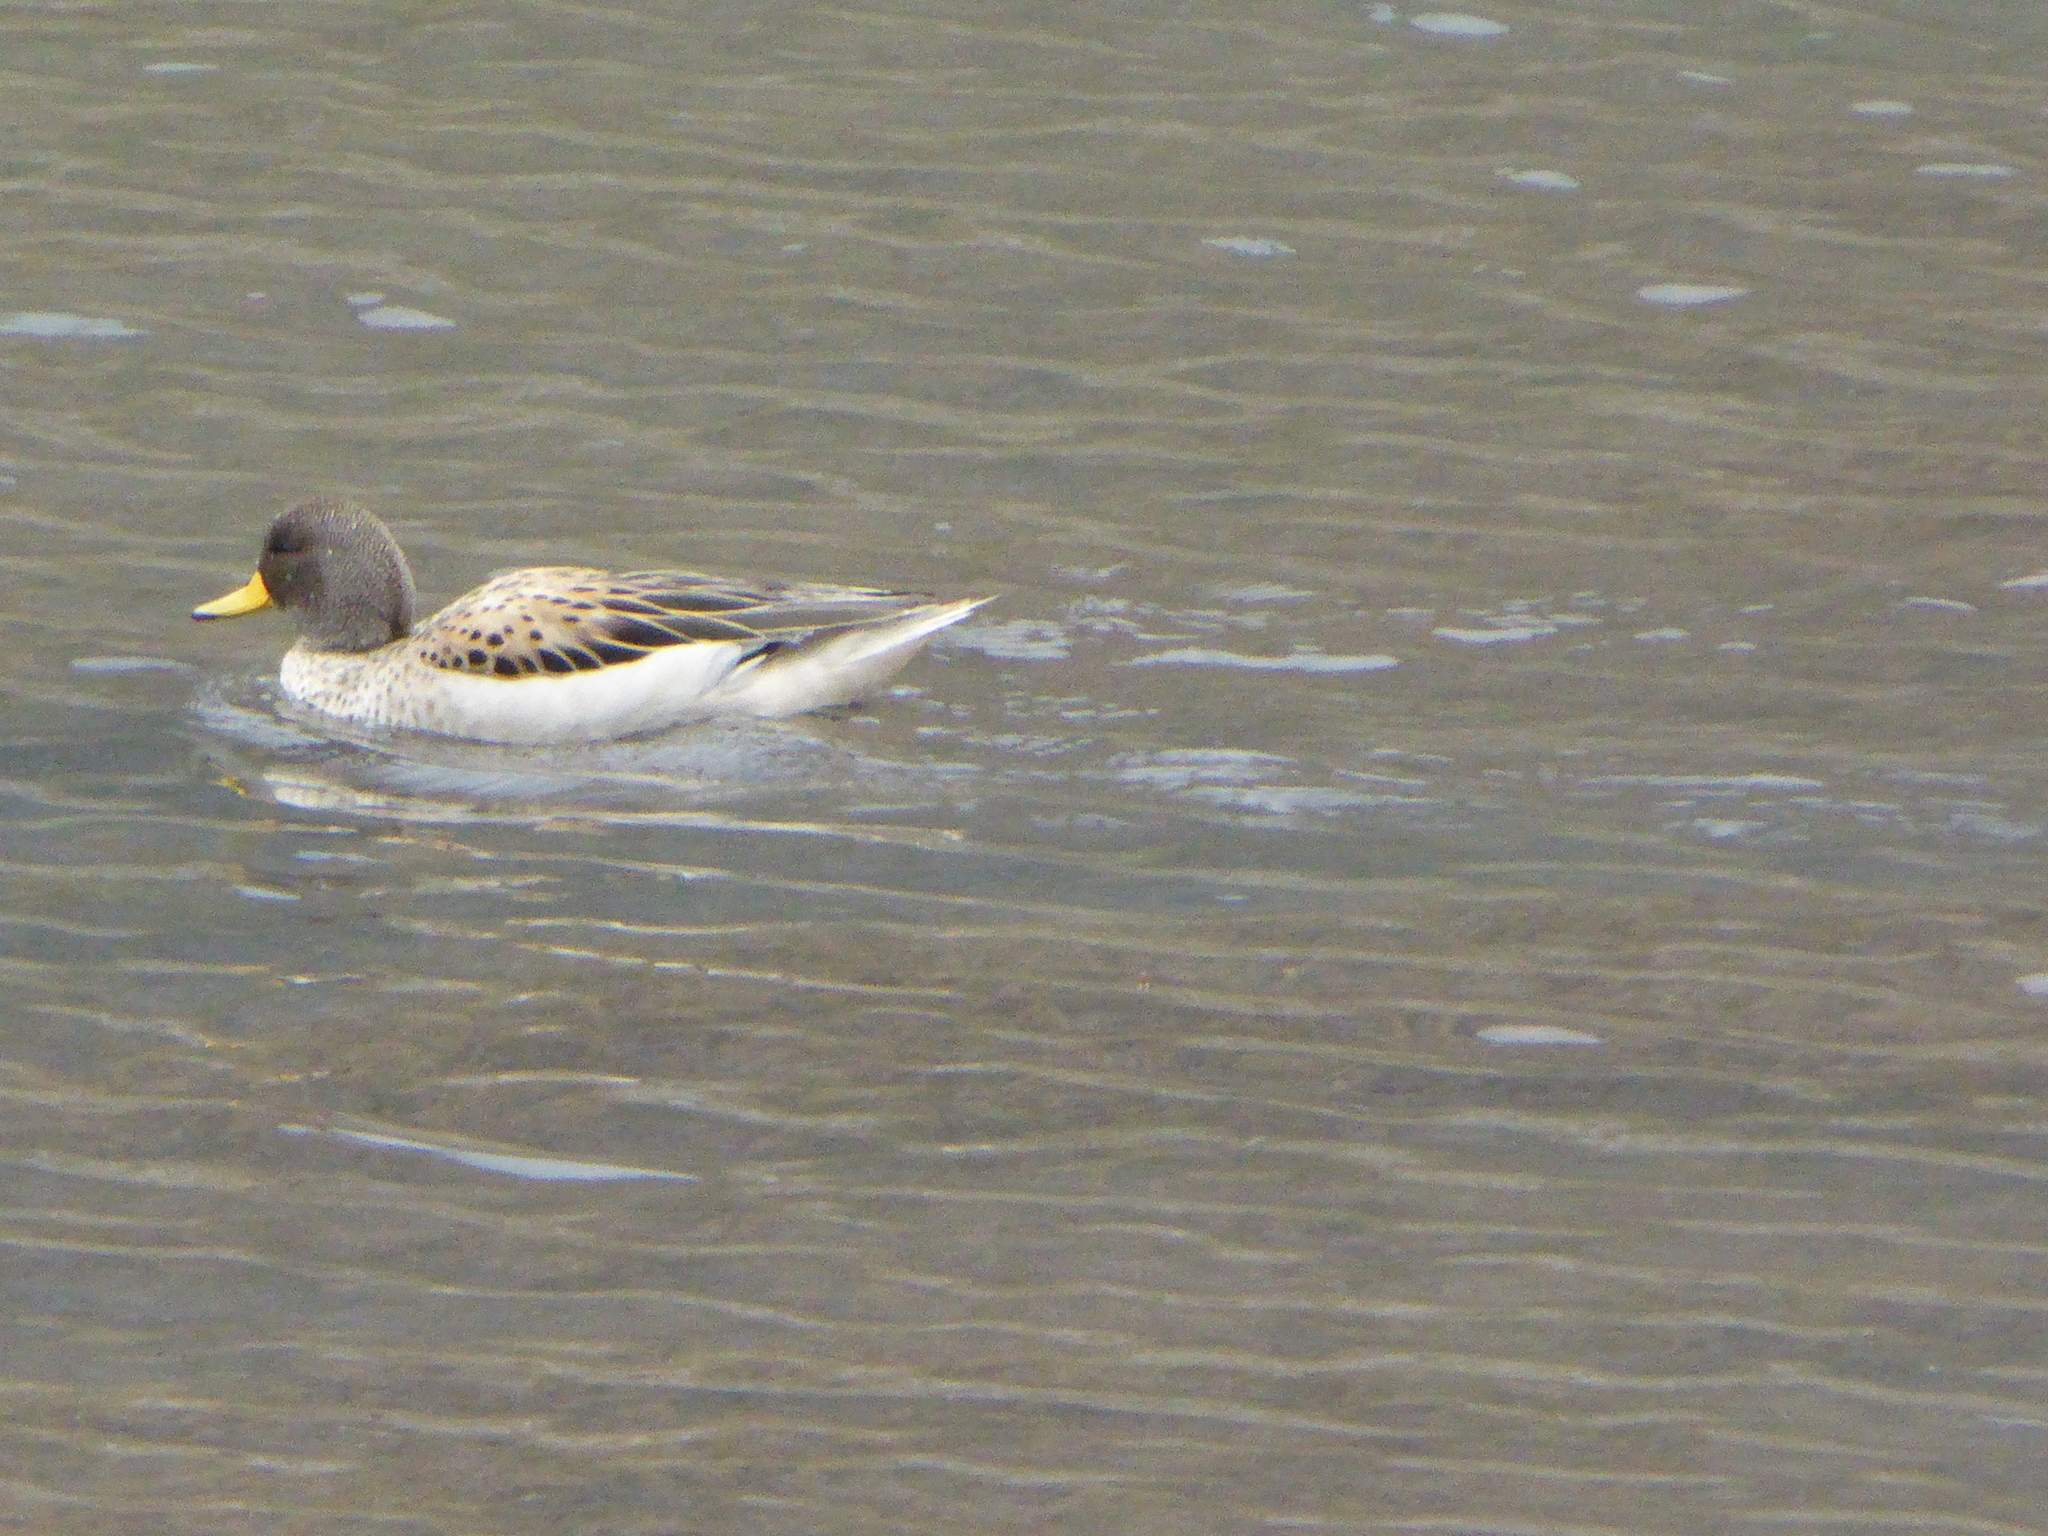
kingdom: Animalia
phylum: Chordata
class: Aves
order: Anseriformes
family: Anatidae
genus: Anas
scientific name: Anas flavirostris
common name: Yellow-billed teal
